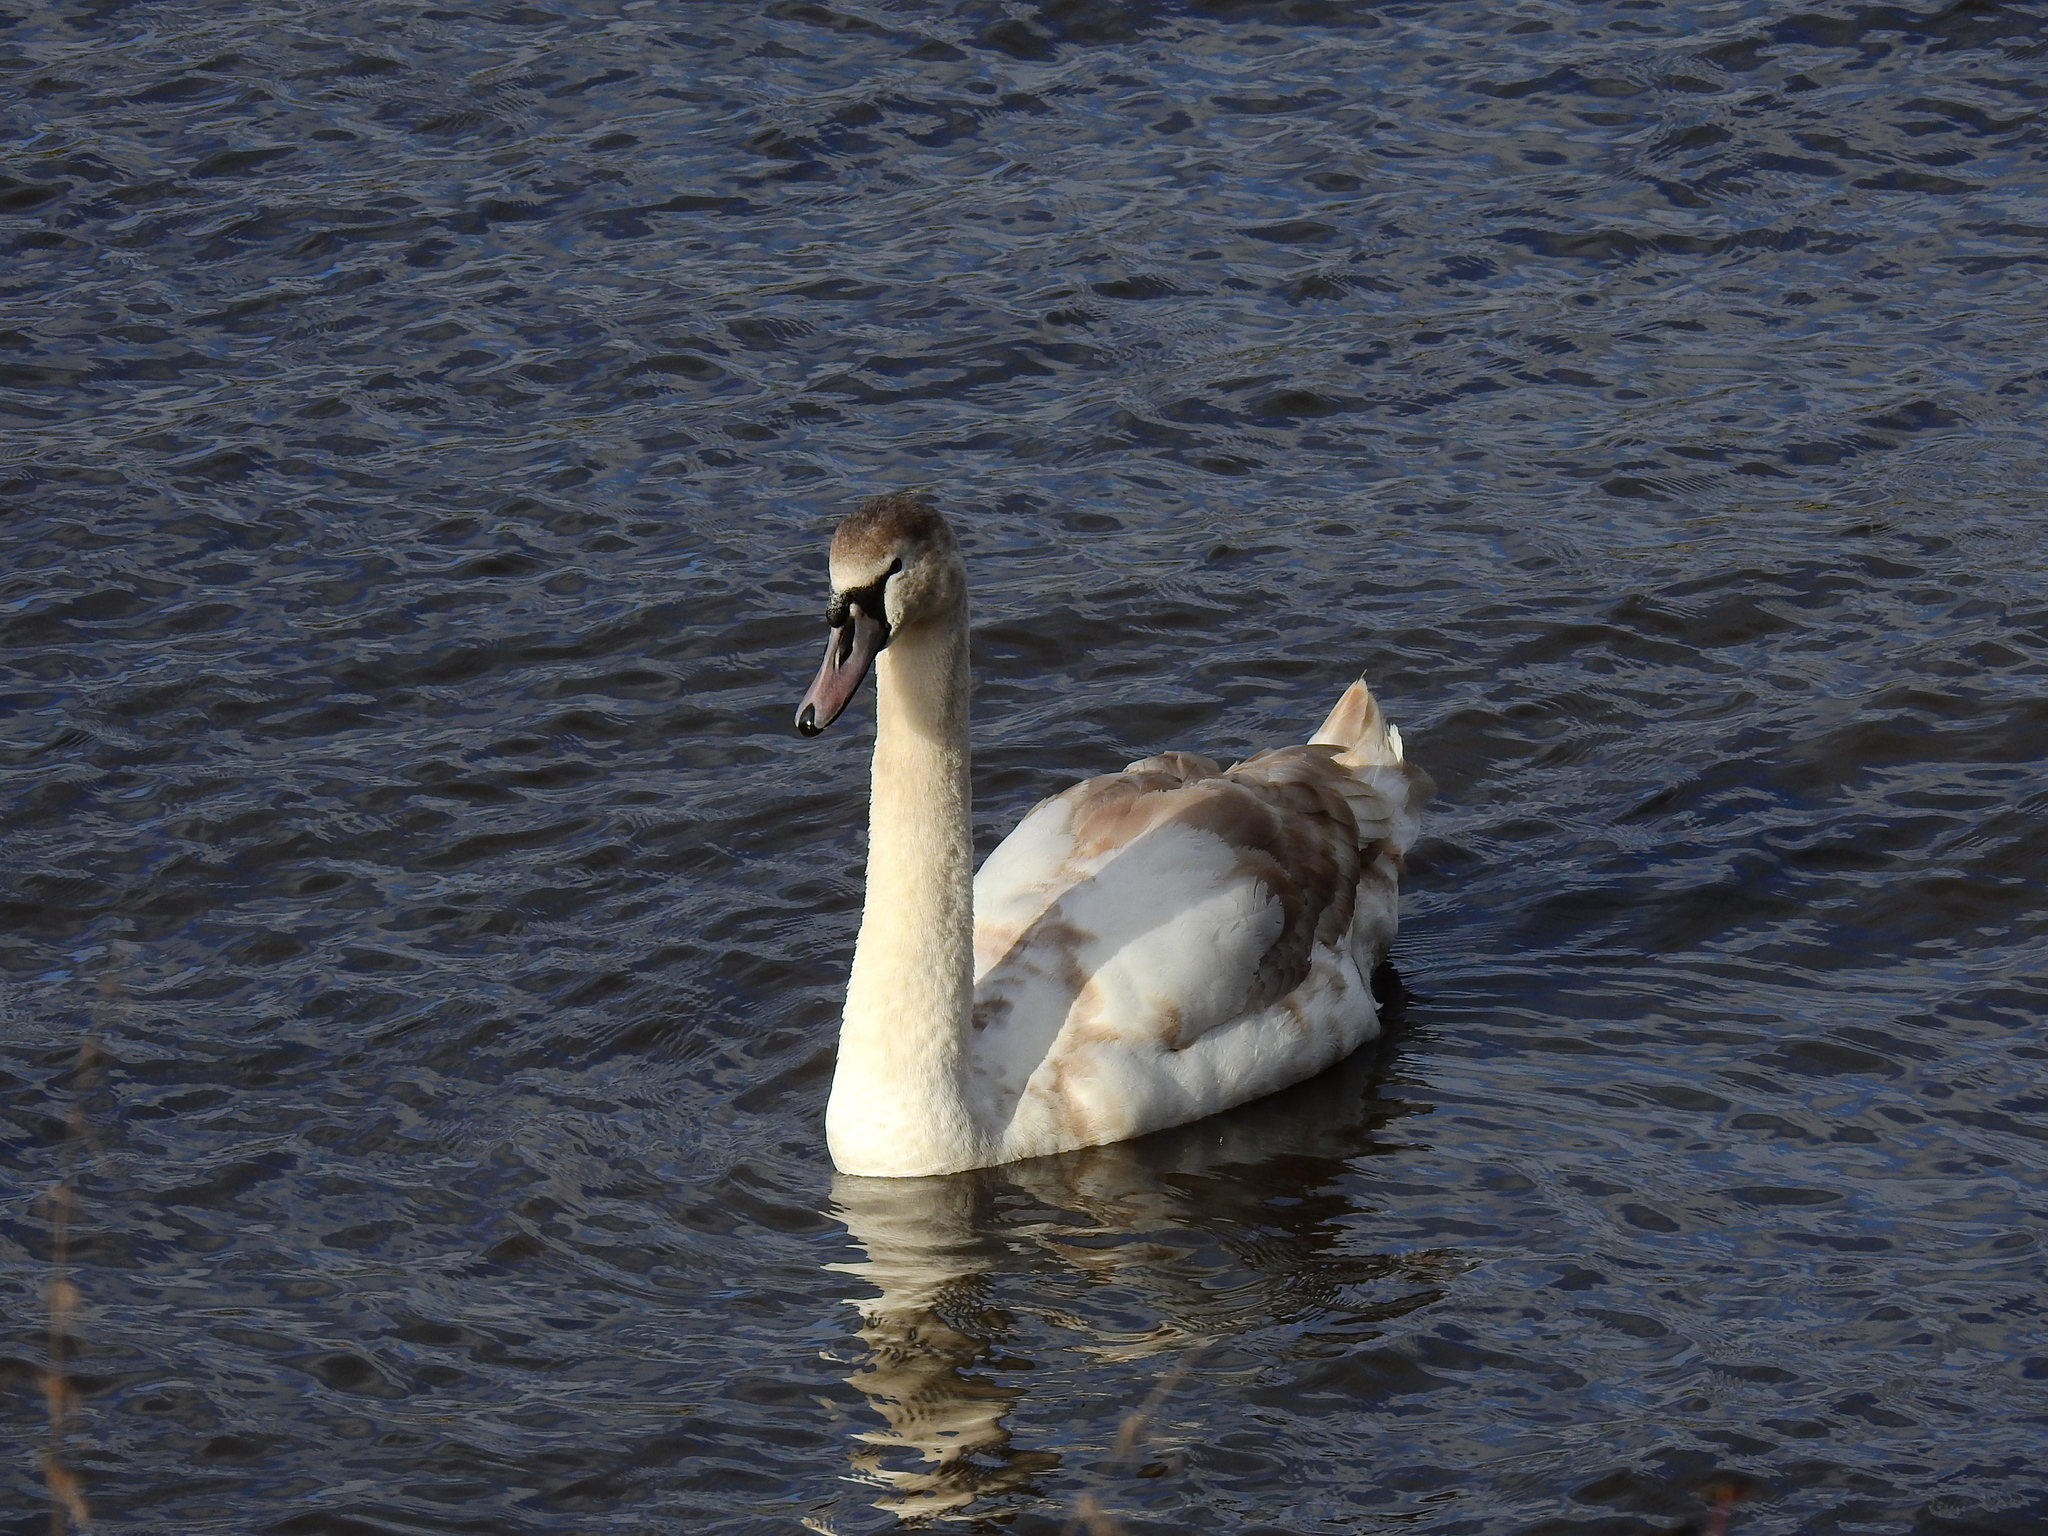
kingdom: Animalia
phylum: Chordata
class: Aves
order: Anseriformes
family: Anatidae
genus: Cygnus
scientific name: Cygnus olor
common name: Mute swan
